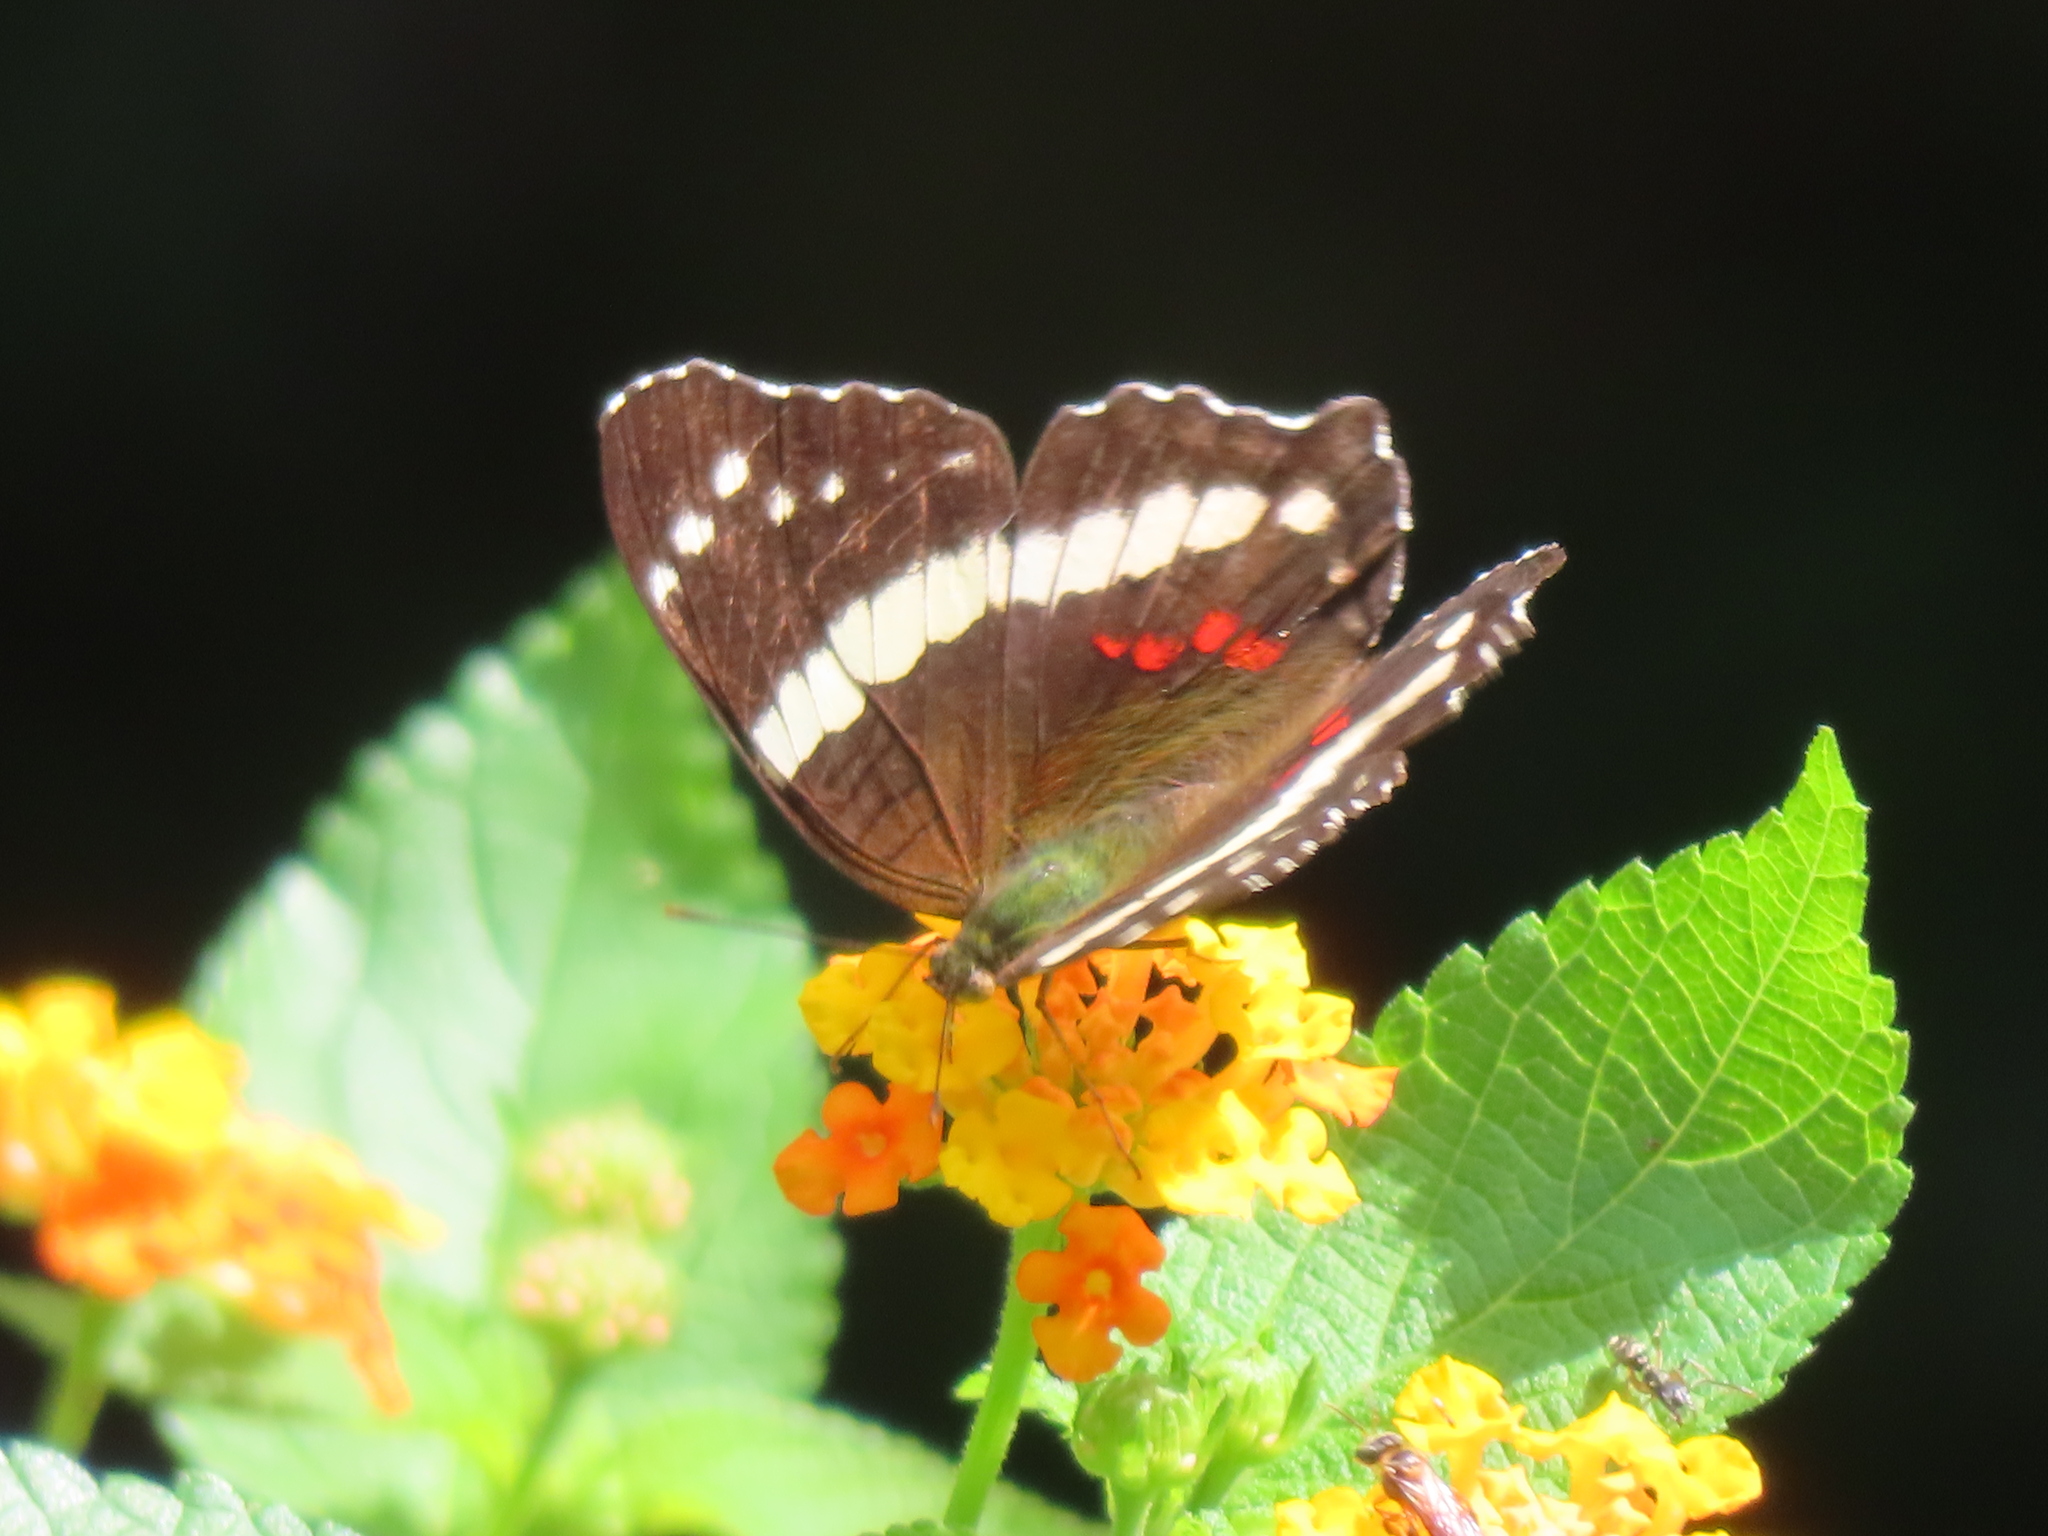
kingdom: Animalia
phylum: Arthropoda
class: Insecta
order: Lepidoptera
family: Nymphalidae
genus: Anartia
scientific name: Anartia fatima
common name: Banded peacock
